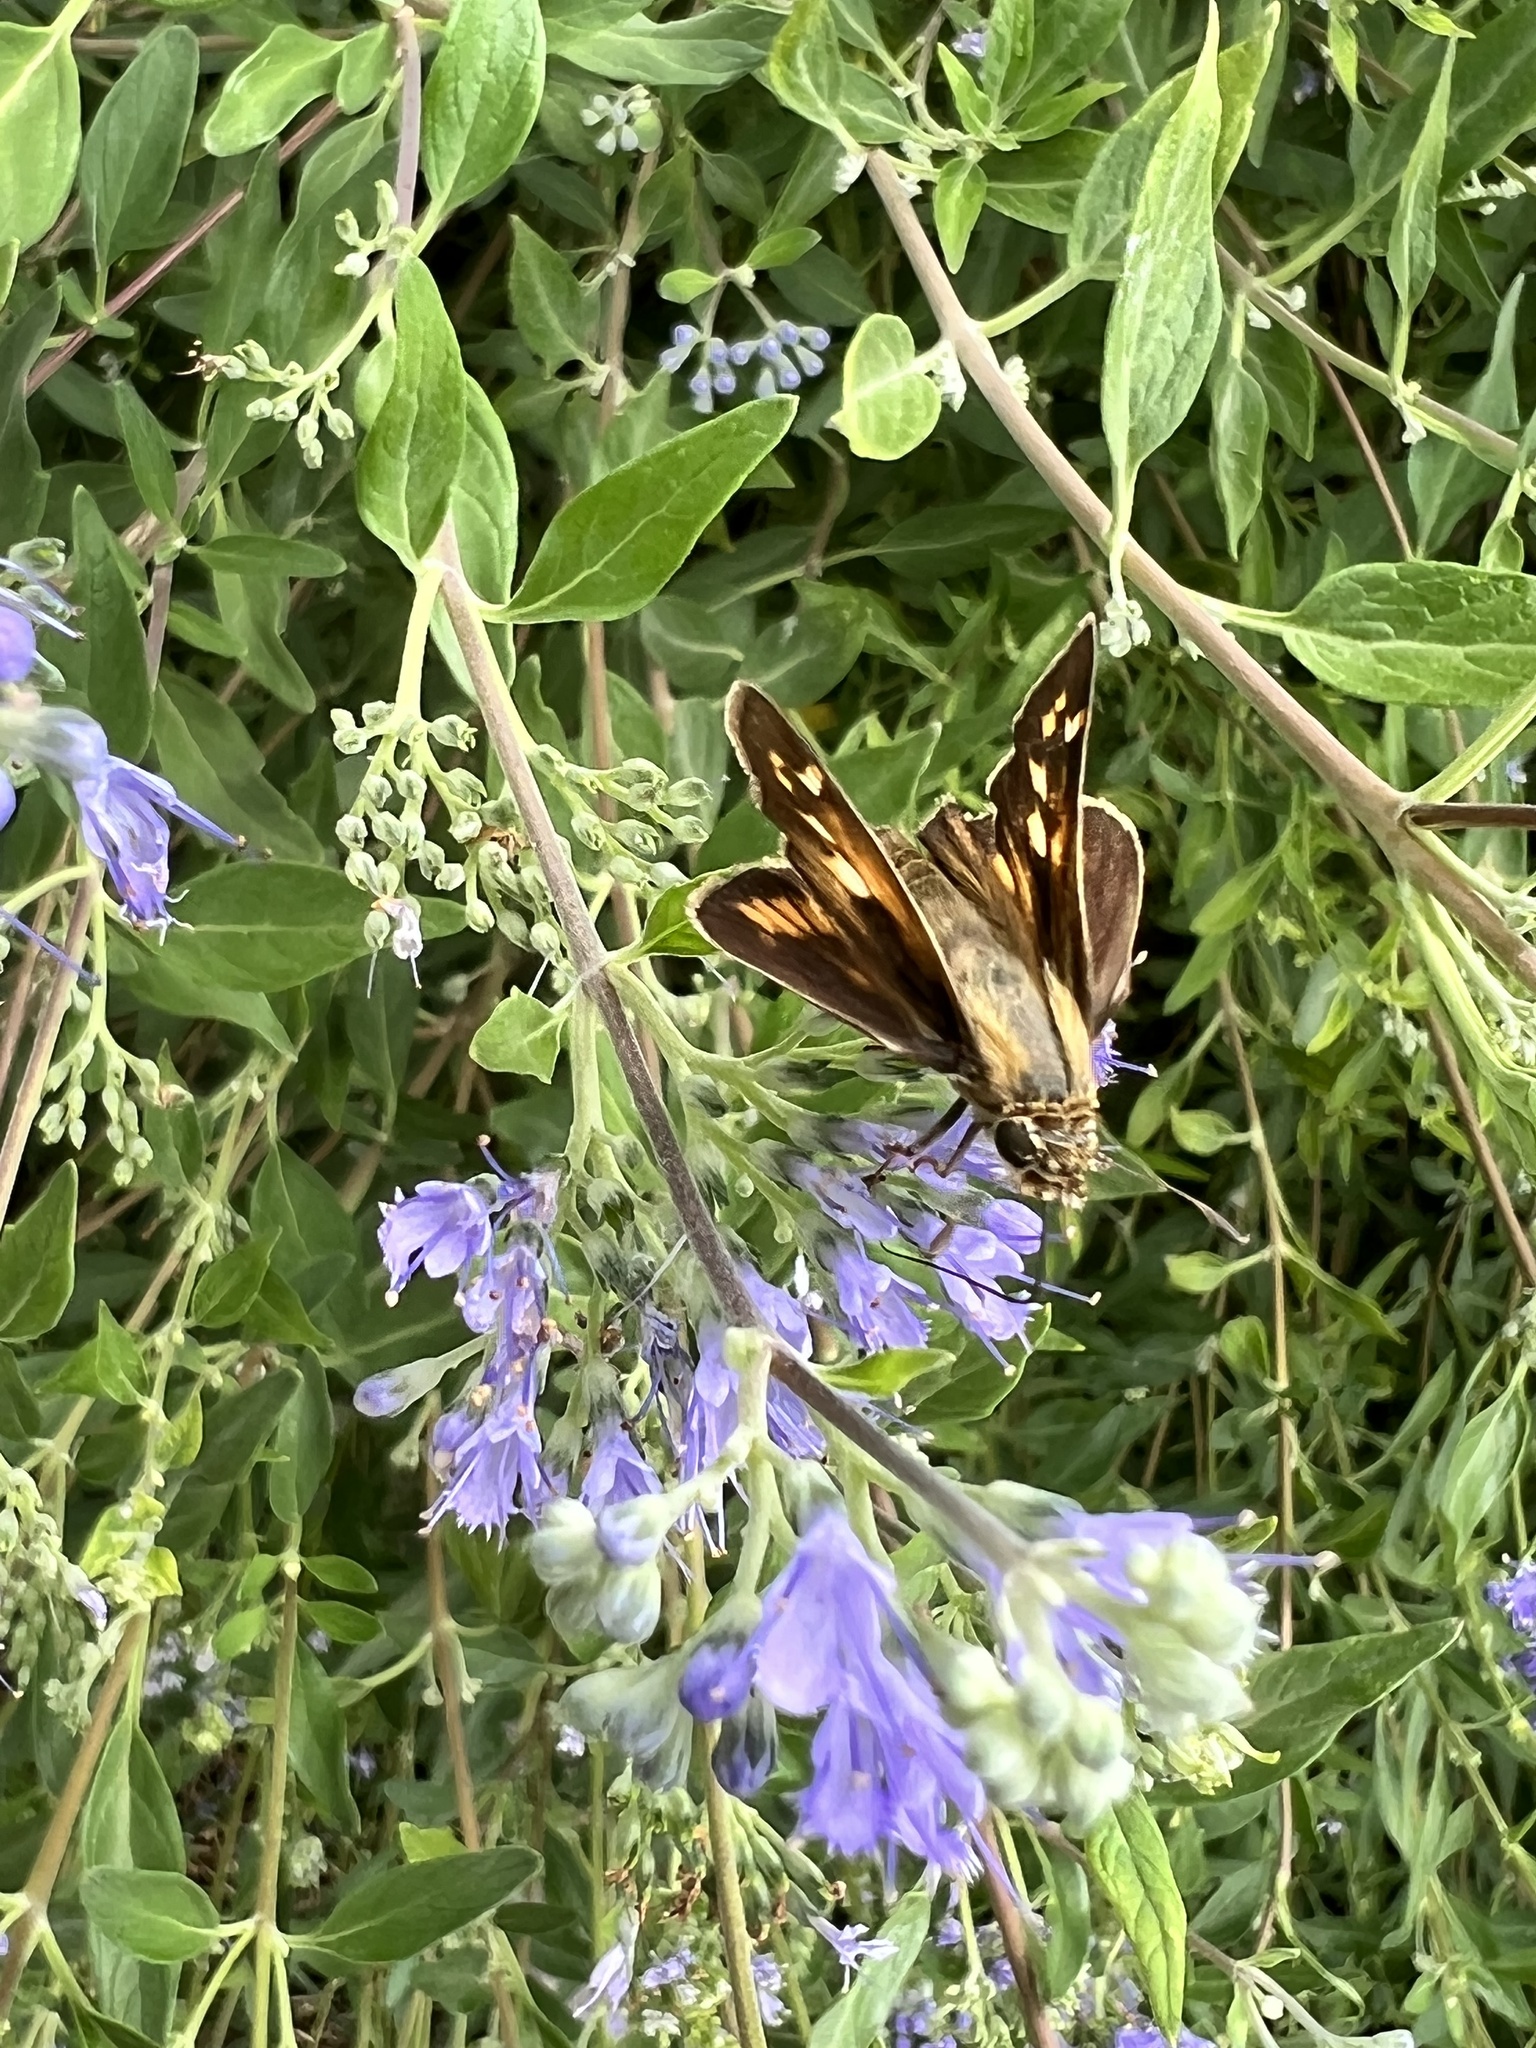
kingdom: Animalia
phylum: Arthropoda
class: Insecta
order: Lepidoptera
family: Hesperiidae
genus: Atalopedes
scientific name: Atalopedes
